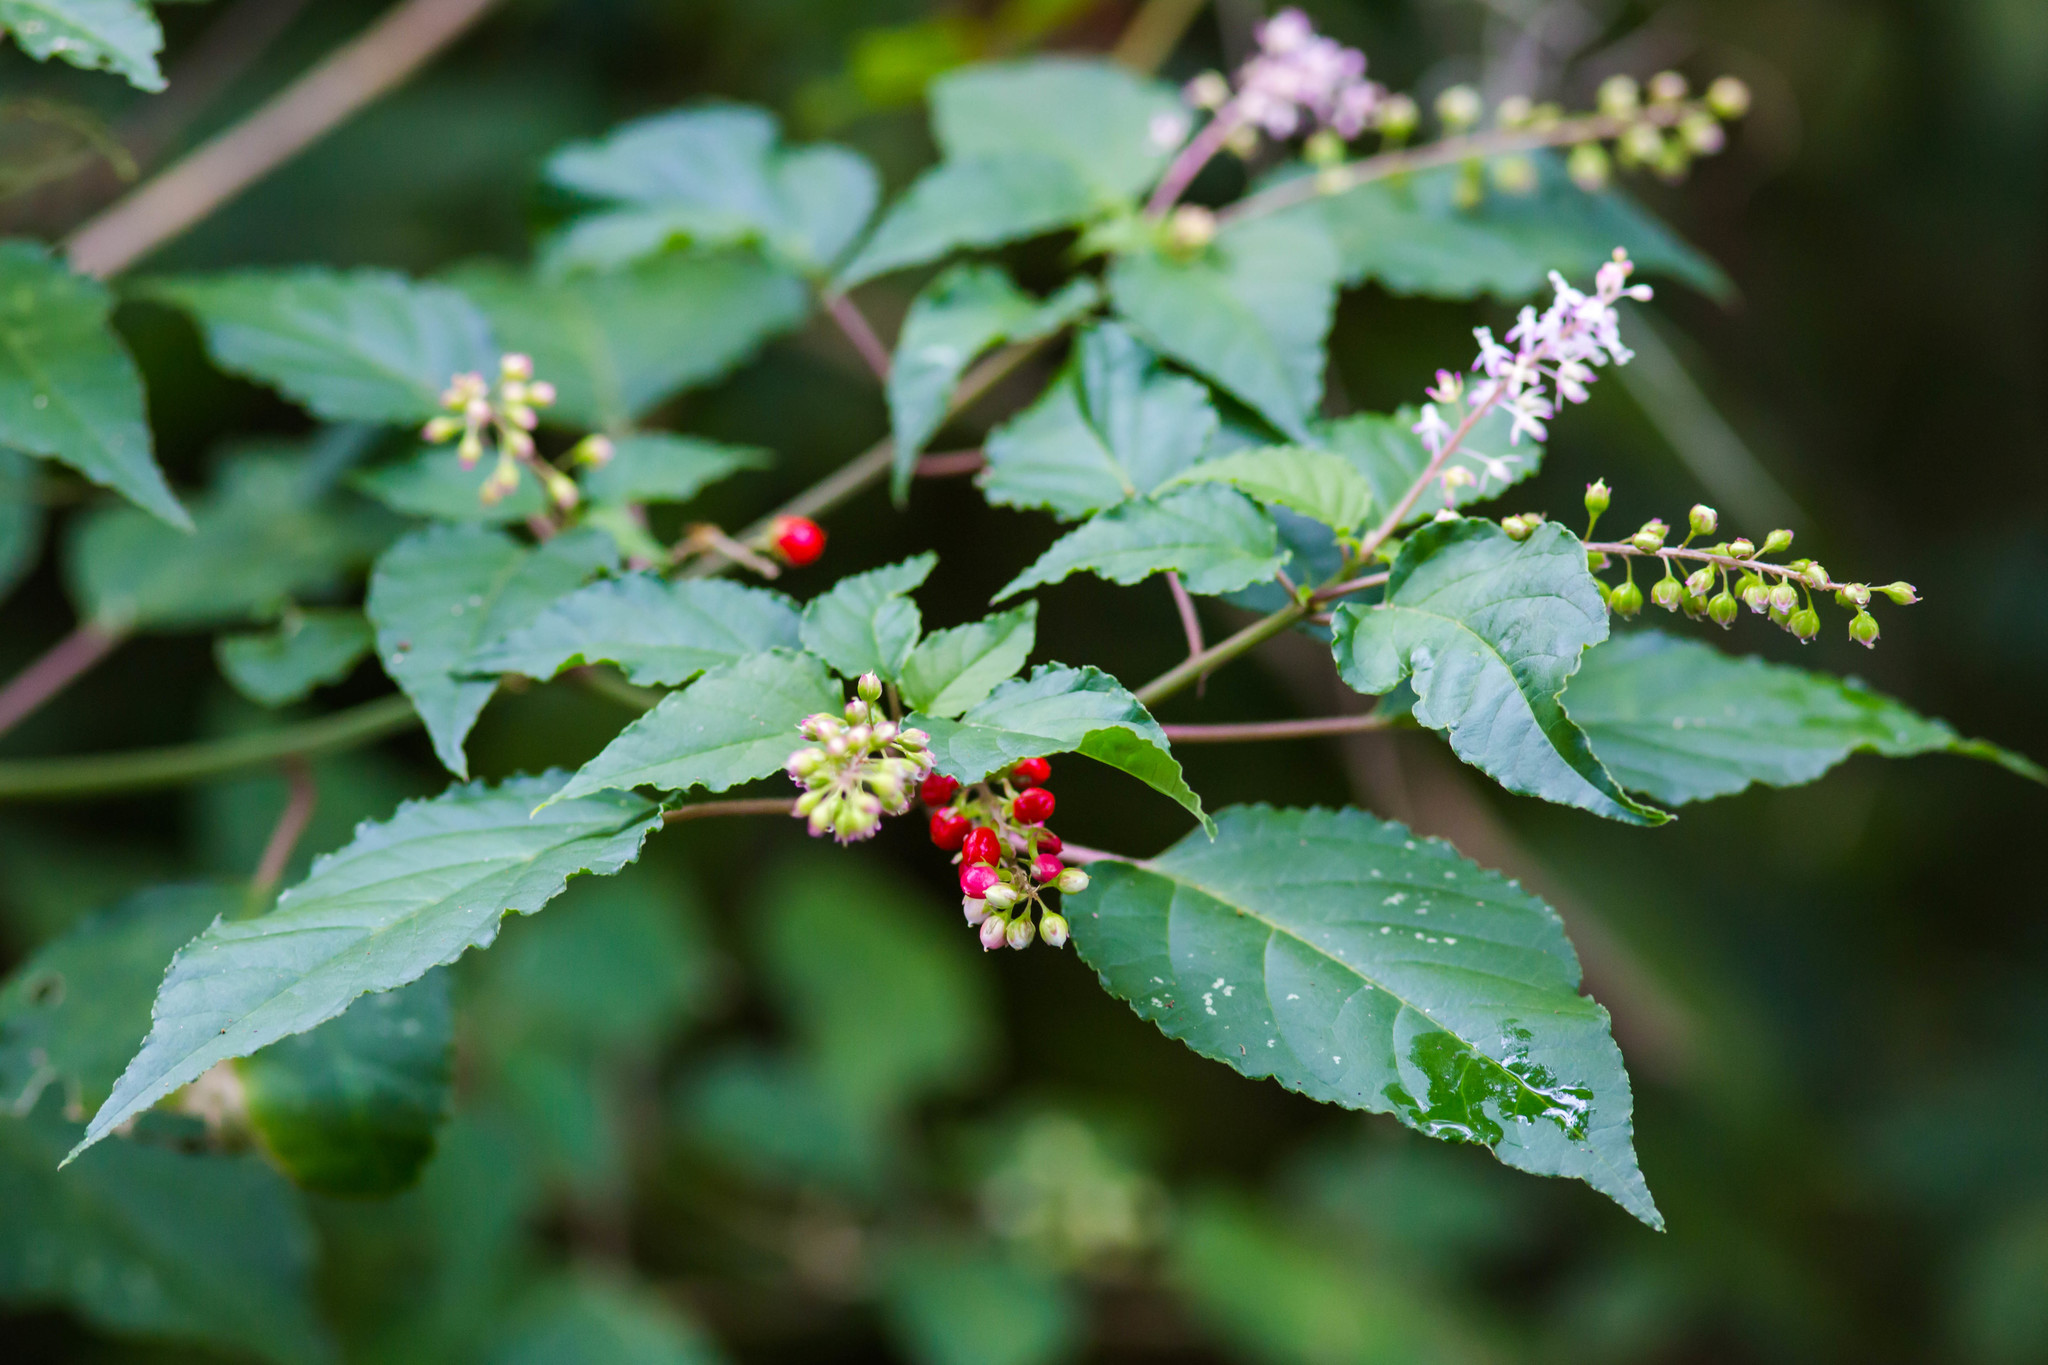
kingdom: Plantae
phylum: Tracheophyta
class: Magnoliopsida
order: Caryophyllales
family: Phytolaccaceae
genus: Rivina
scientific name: Rivina humilis
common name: Rougeplant
